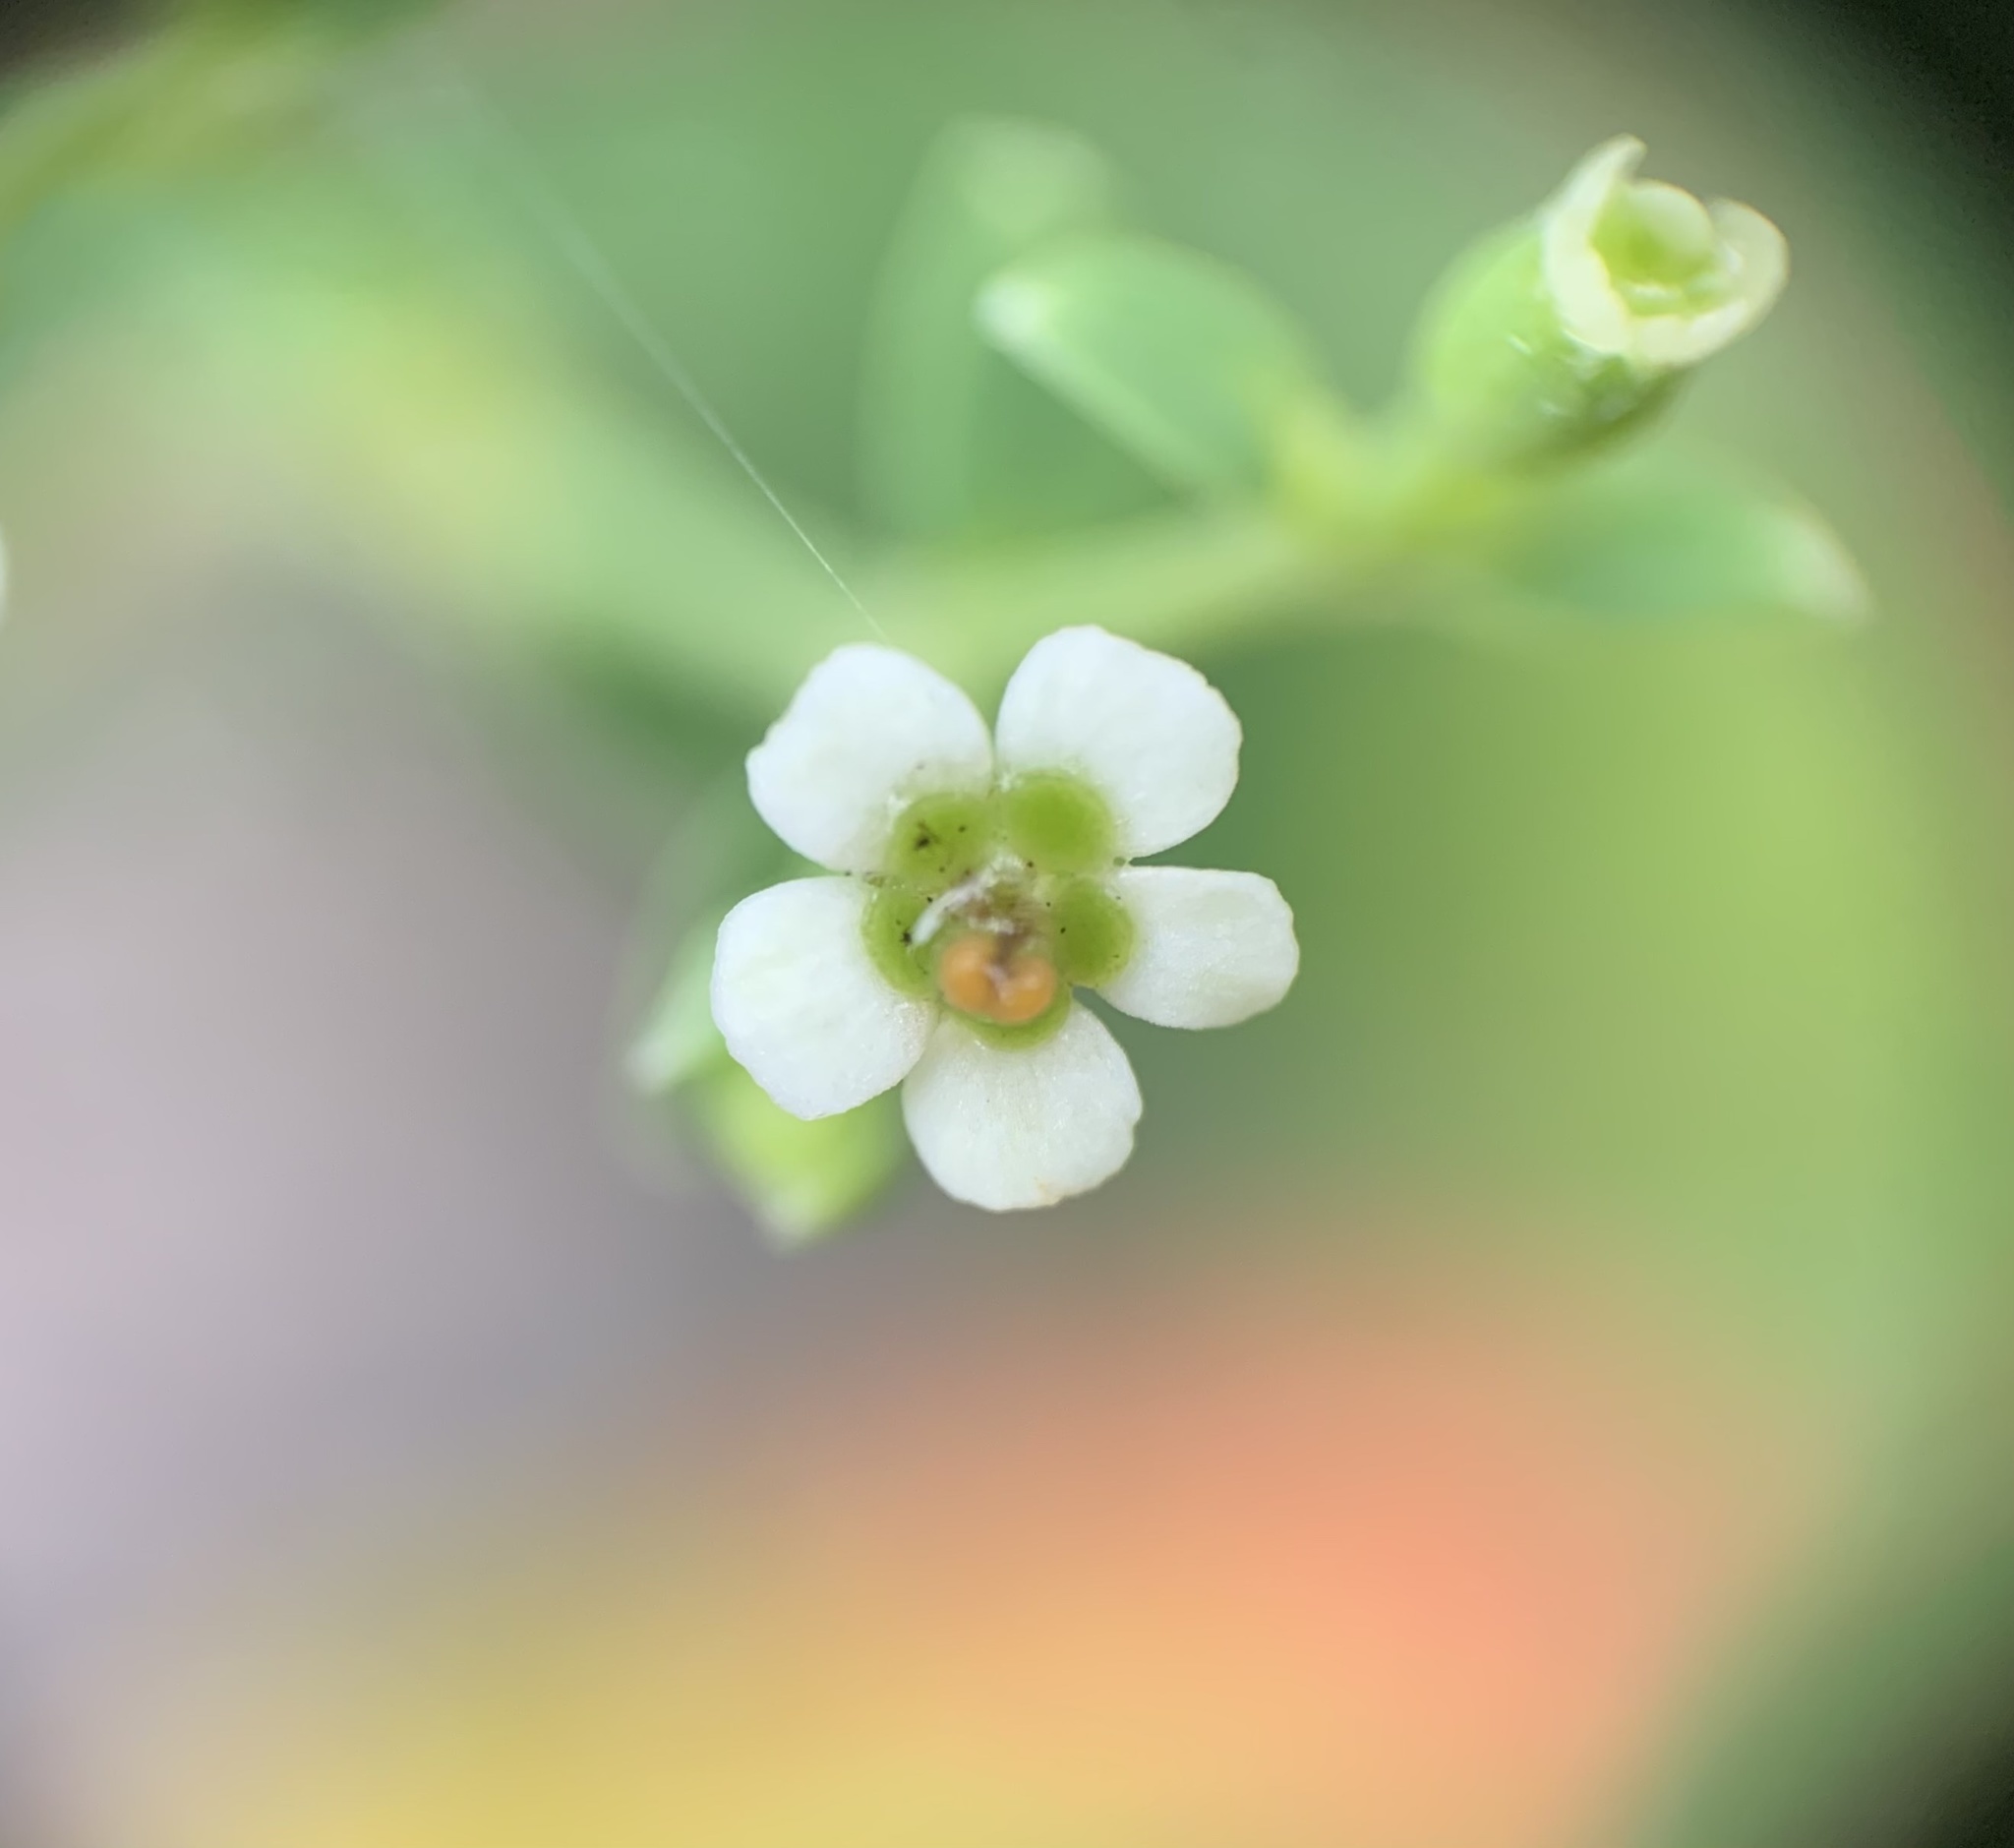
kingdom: Plantae
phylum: Tracheophyta
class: Magnoliopsida
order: Malpighiales
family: Euphorbiaceae
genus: Euphorbia
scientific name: Euphorbia pubentissima
